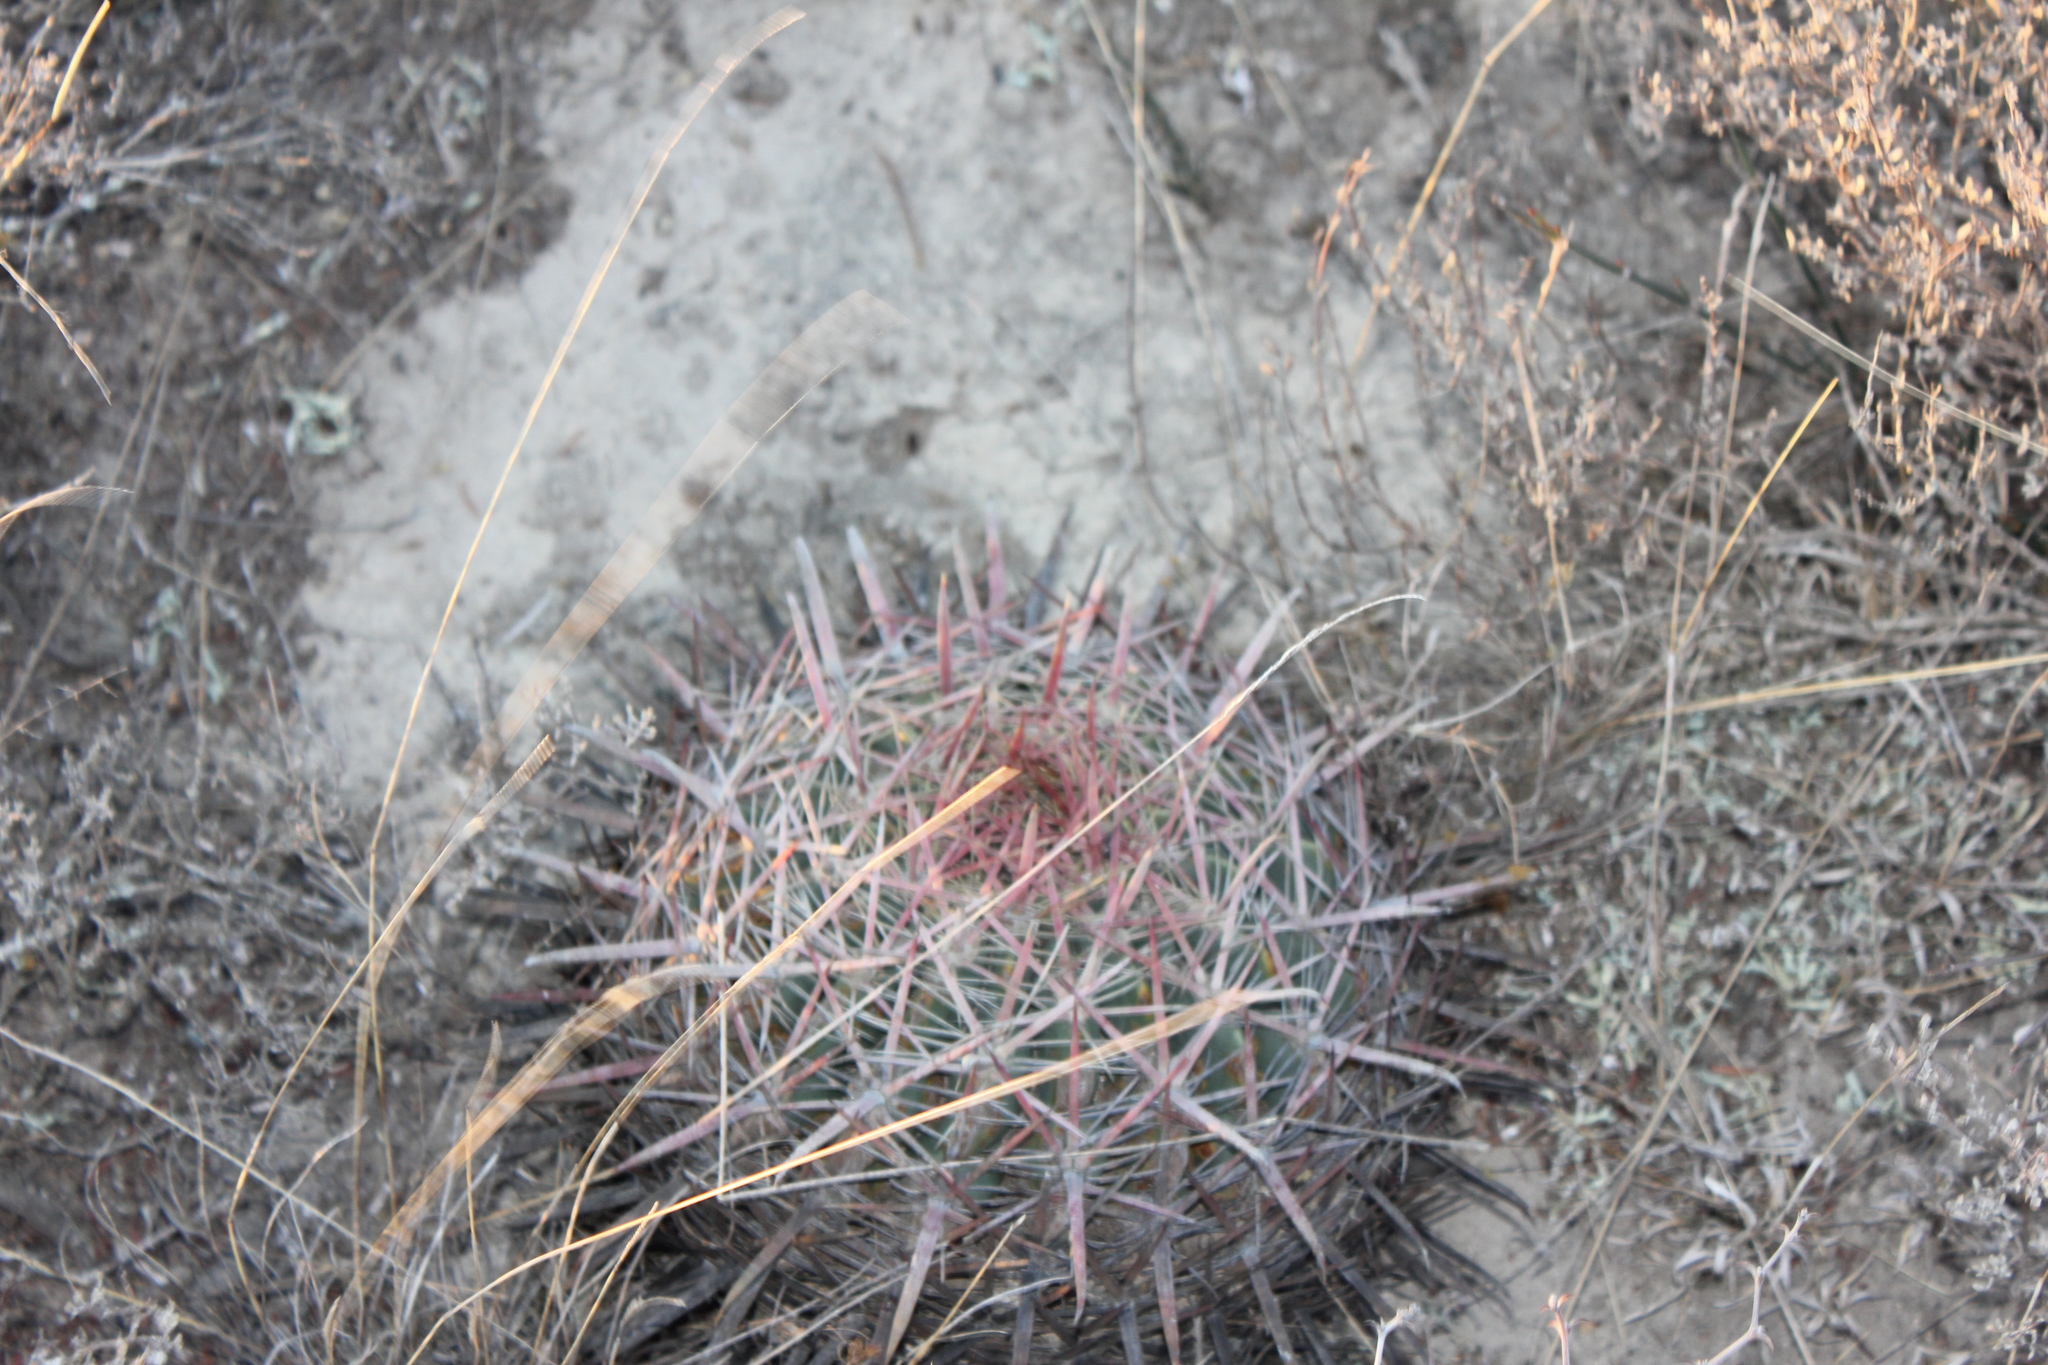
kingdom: Plantae
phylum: Tracheophyta
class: Magnoliopsida
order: Caryophyllales
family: Cactaceae
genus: Ferocactus
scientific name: Ferocactus latispinus
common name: Devil's-tongue cactus
